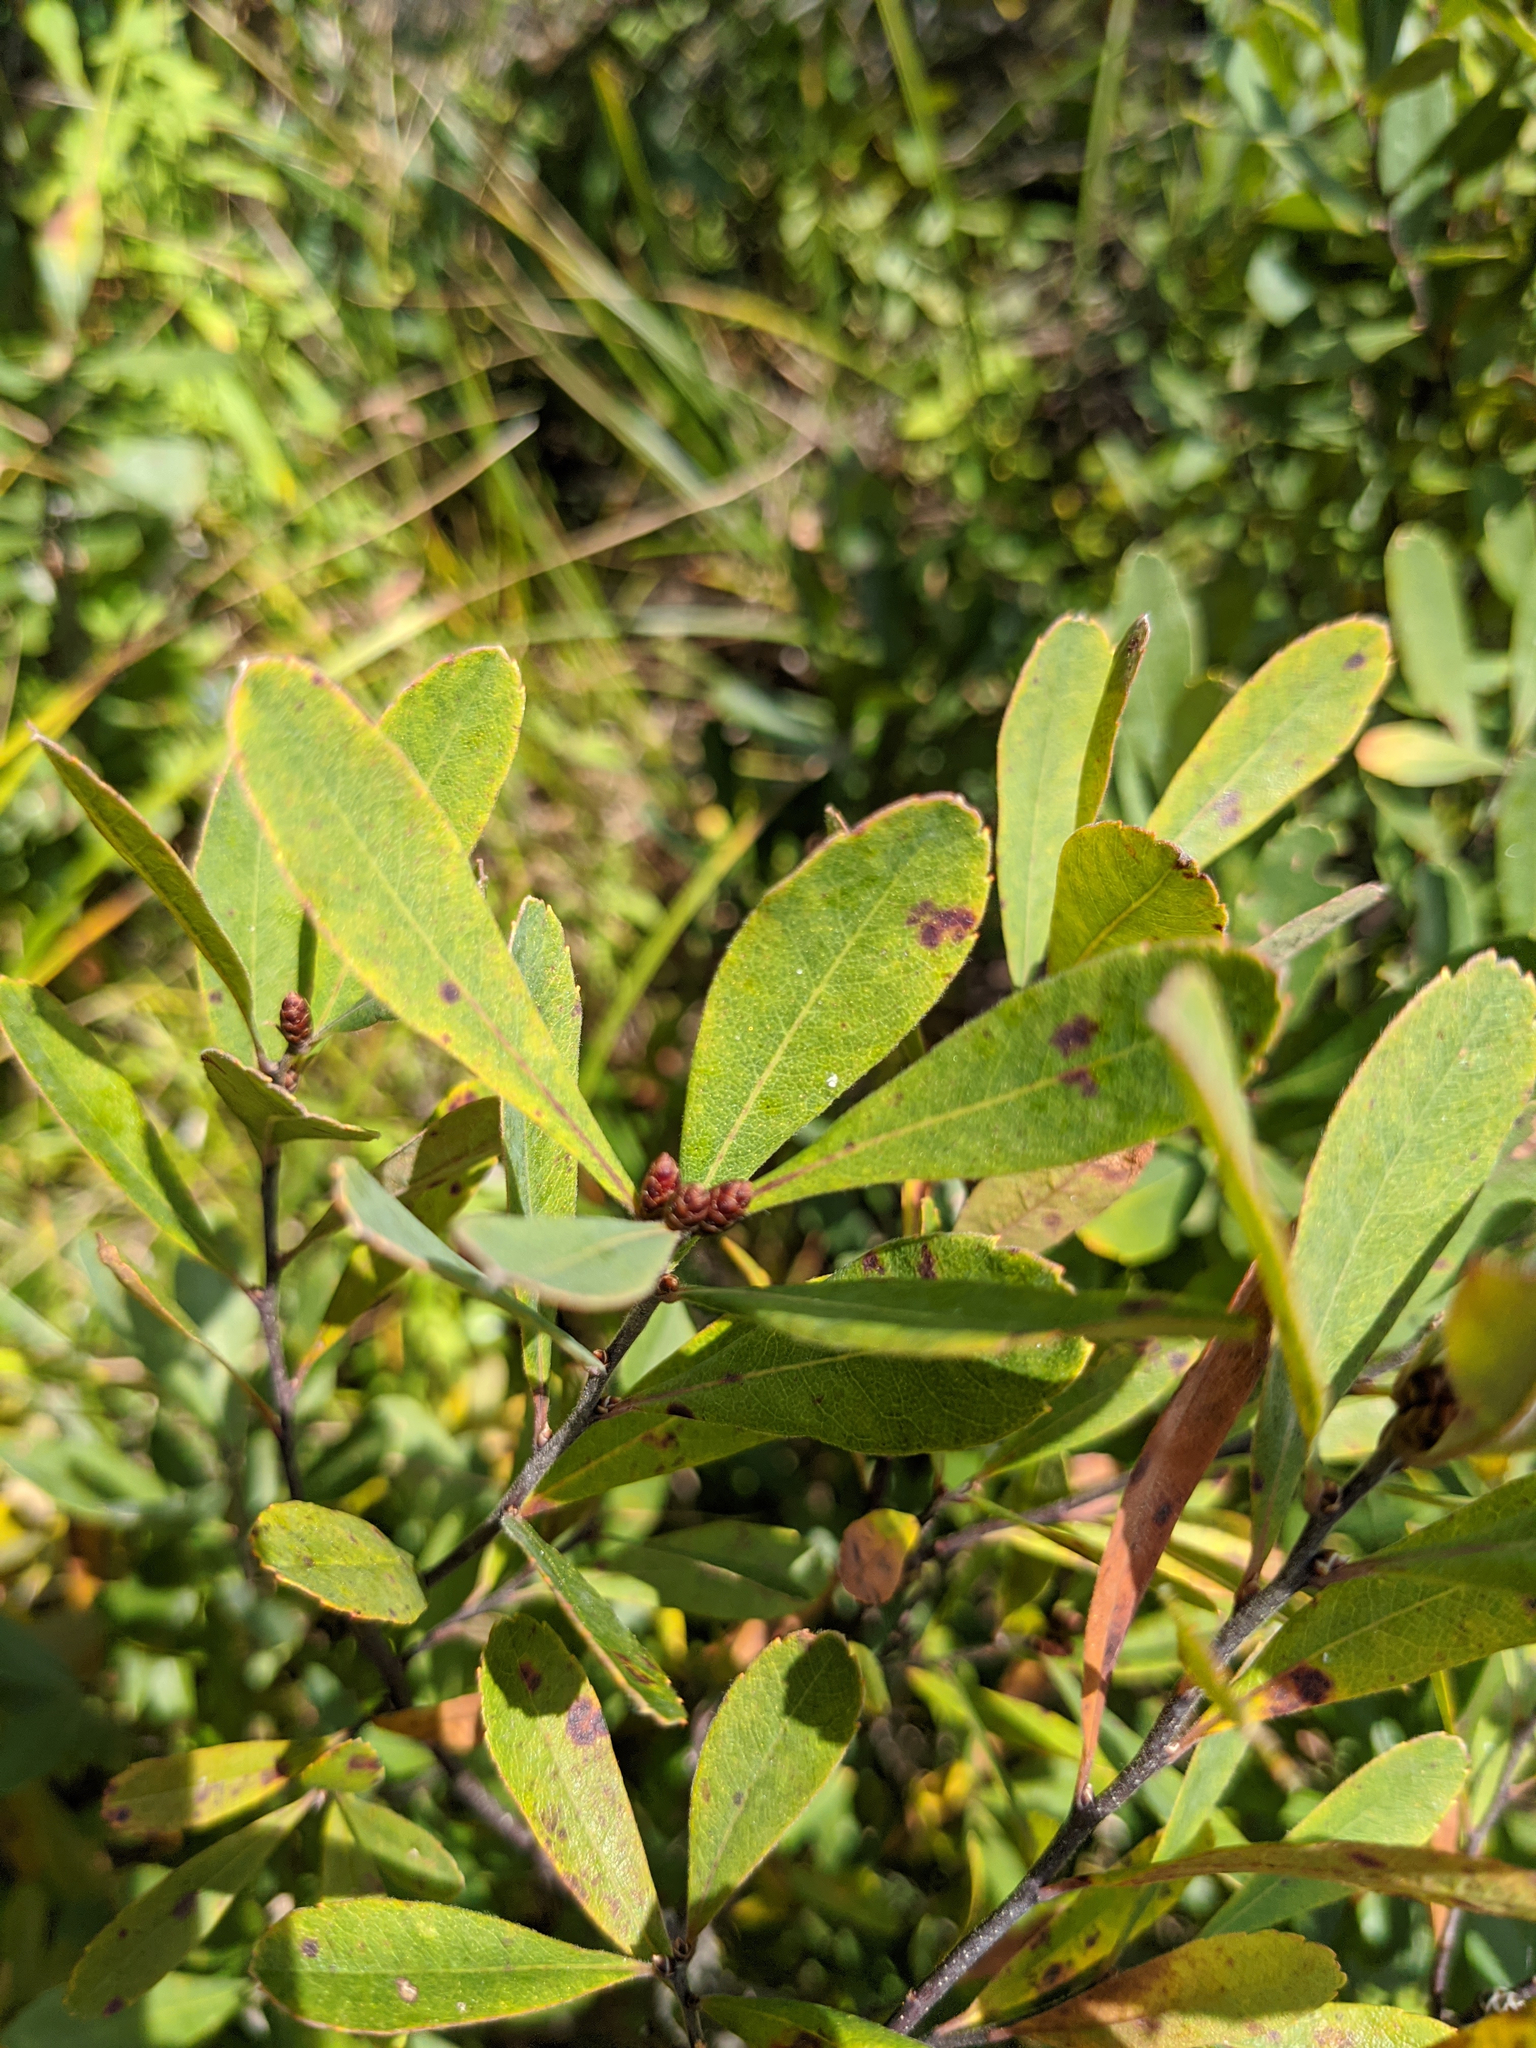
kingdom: Plantae
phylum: Tracheophyta
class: Magnoliopsida
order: Fagales
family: Myricaceae
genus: Myrica
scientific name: Myrica gale
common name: Sweet gale
